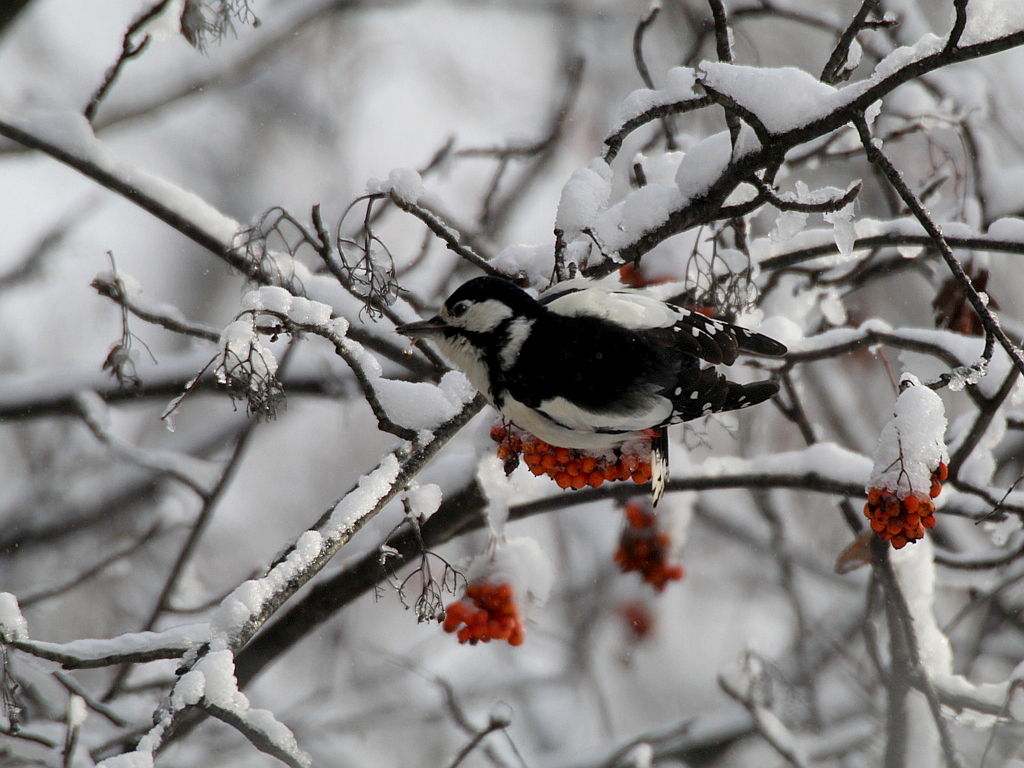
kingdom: Animalia
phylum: Chordata
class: Aves
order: Piciformes
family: Picidae
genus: Dendrocopos
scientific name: Dendrocopos major
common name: Great spotted woodpecker
